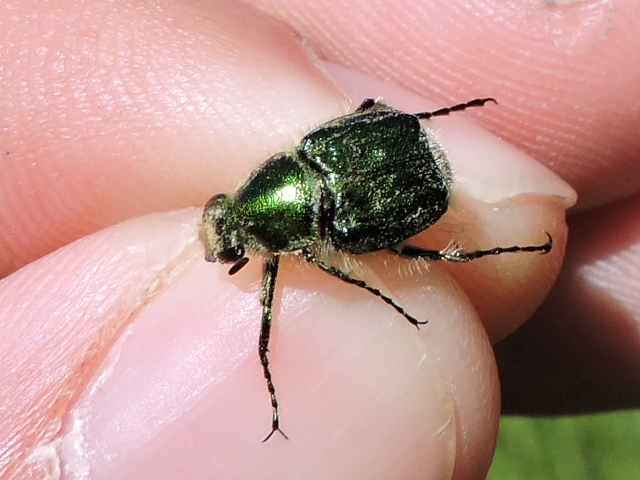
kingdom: Animalia
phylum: Arthropoda
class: Insecta
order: Coleoptera
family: Scarabaeidae
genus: Trichiotinus
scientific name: Trichiotinus lunulatus
